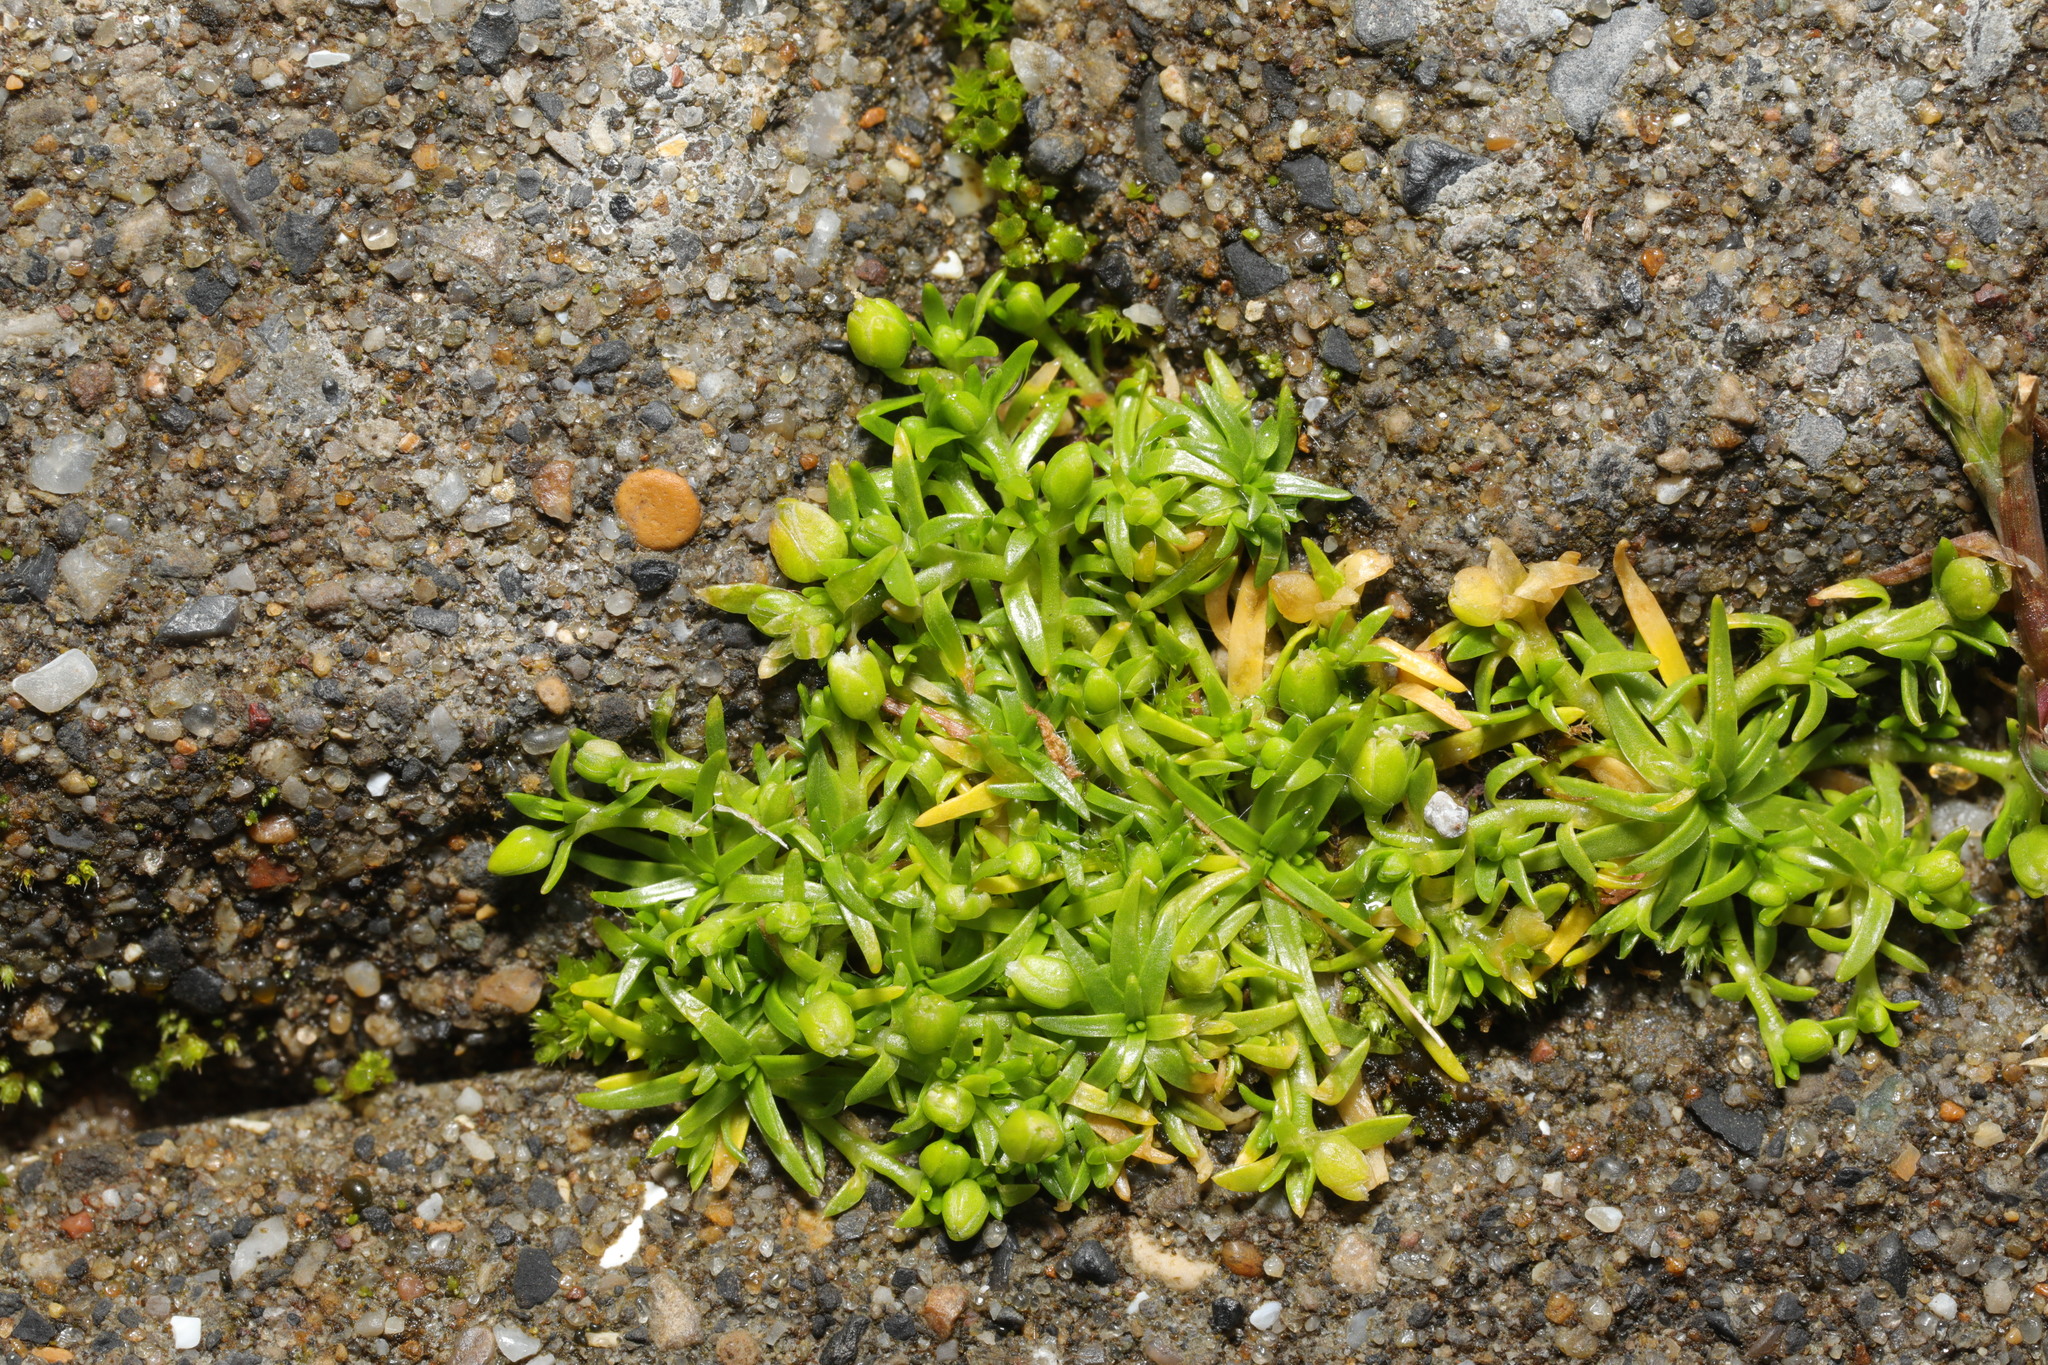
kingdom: Plantae
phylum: Tracheophyta
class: Magnoliopsida
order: Caryophyllales
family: Caryophyllaceae
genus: Sagina
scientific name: Sagina procumbens
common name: Procumbent pearlwort
